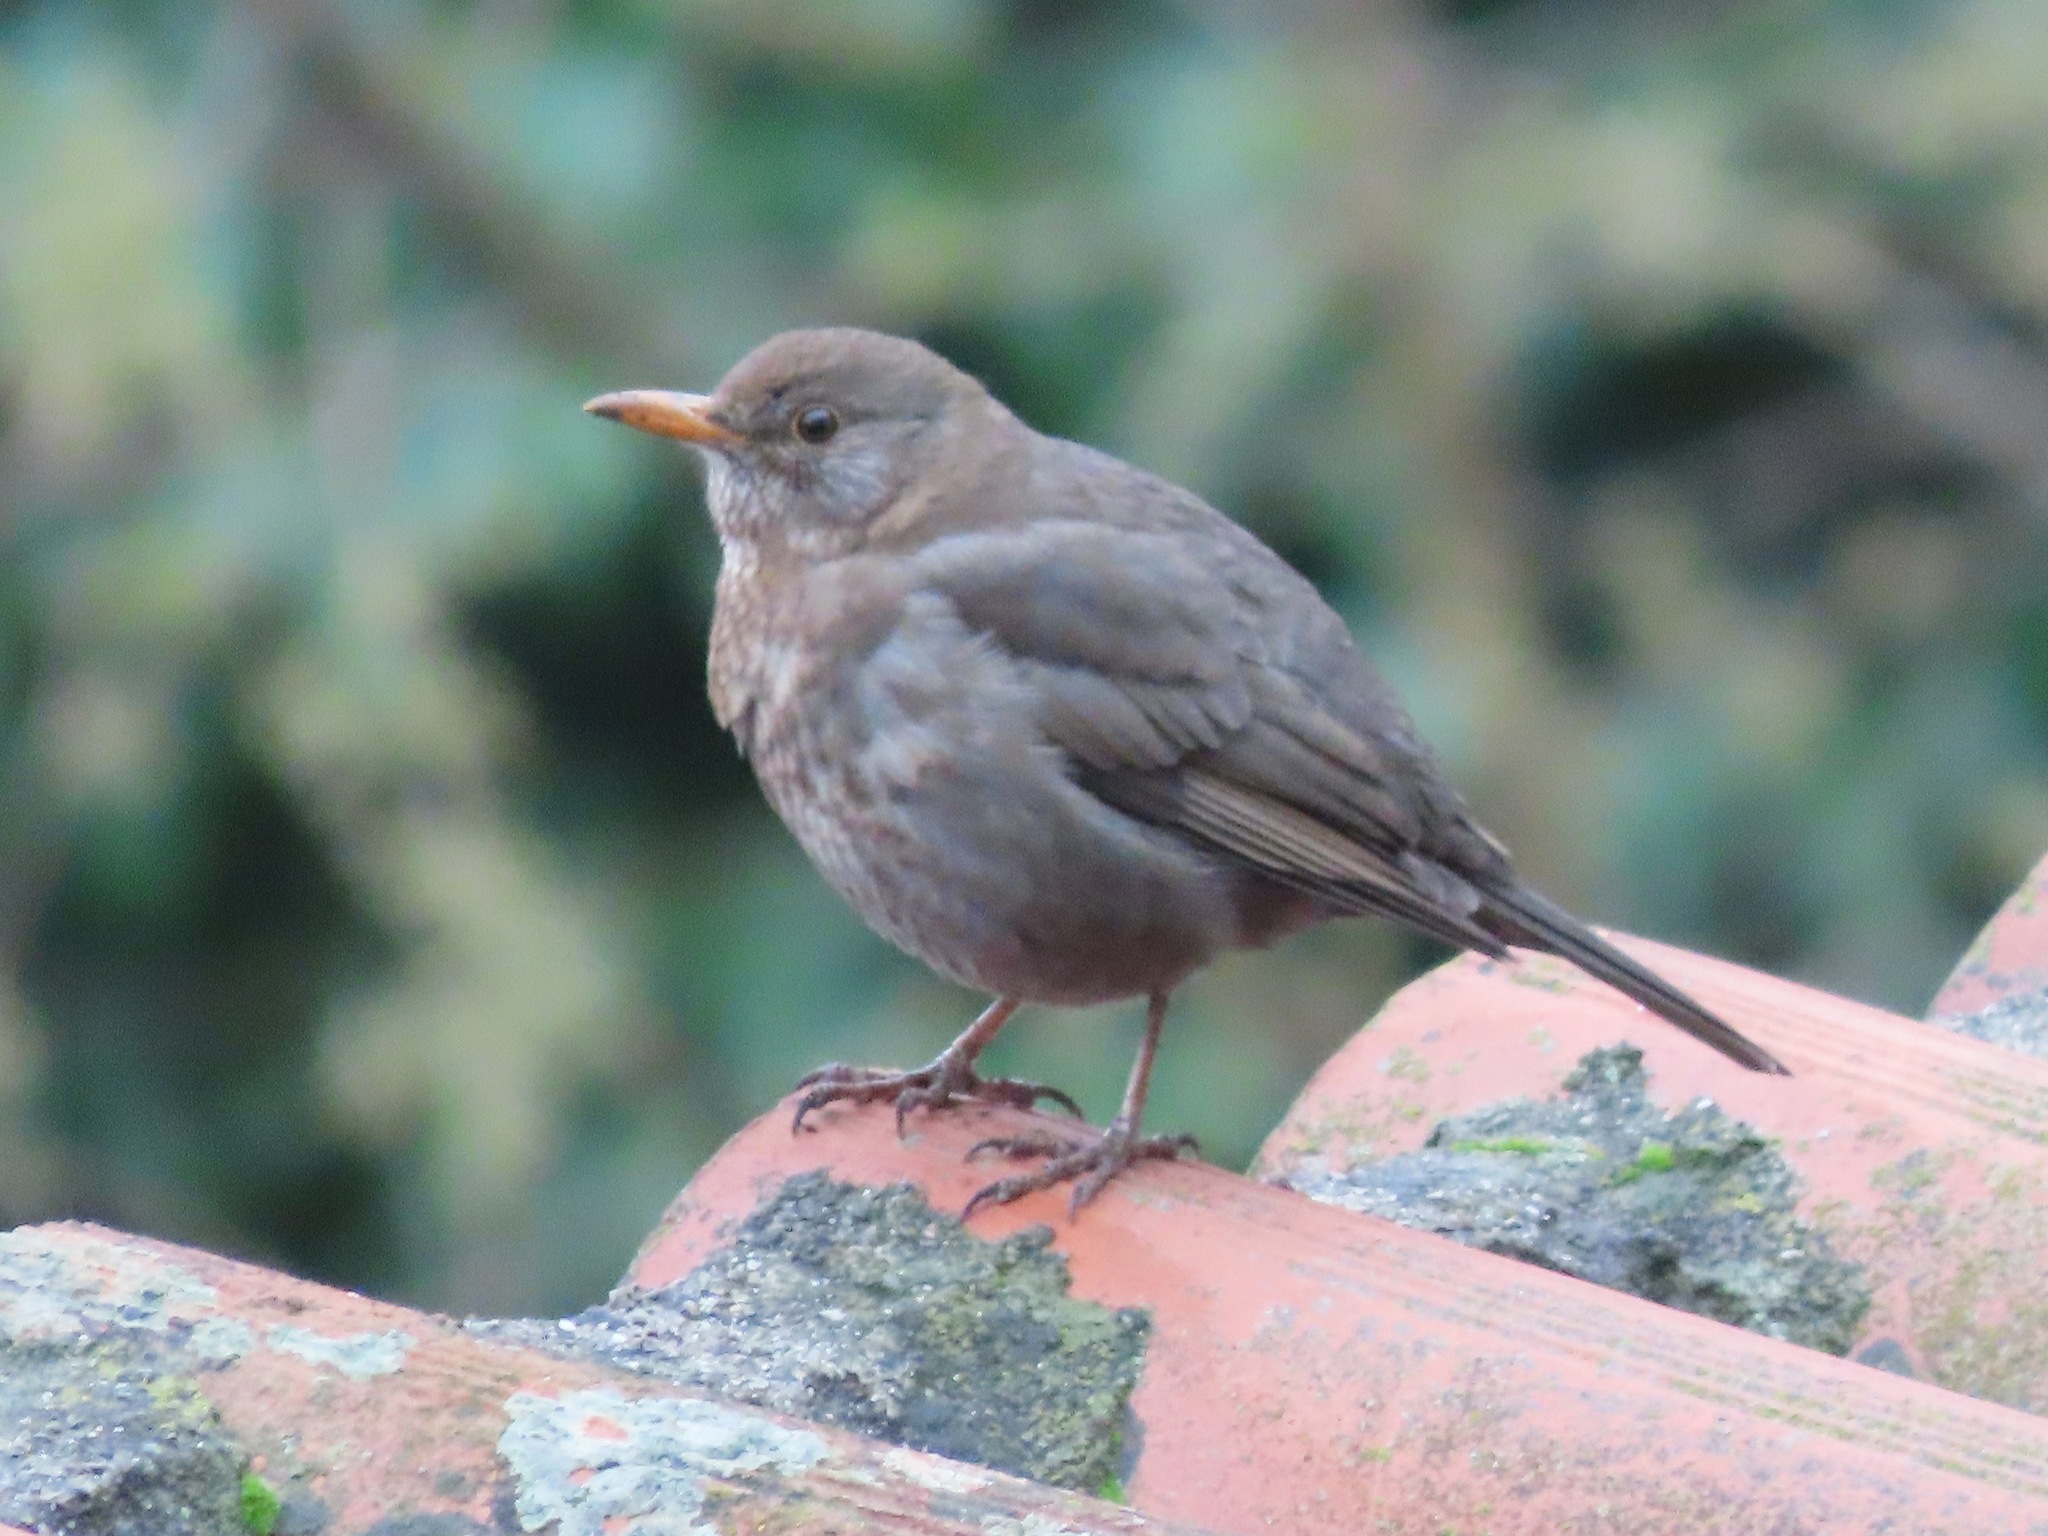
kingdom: Animalia
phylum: Chordata
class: Aves
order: Passeriformes
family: Turdidae
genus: Turdus
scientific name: Turdus merula
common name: Common blackbird
